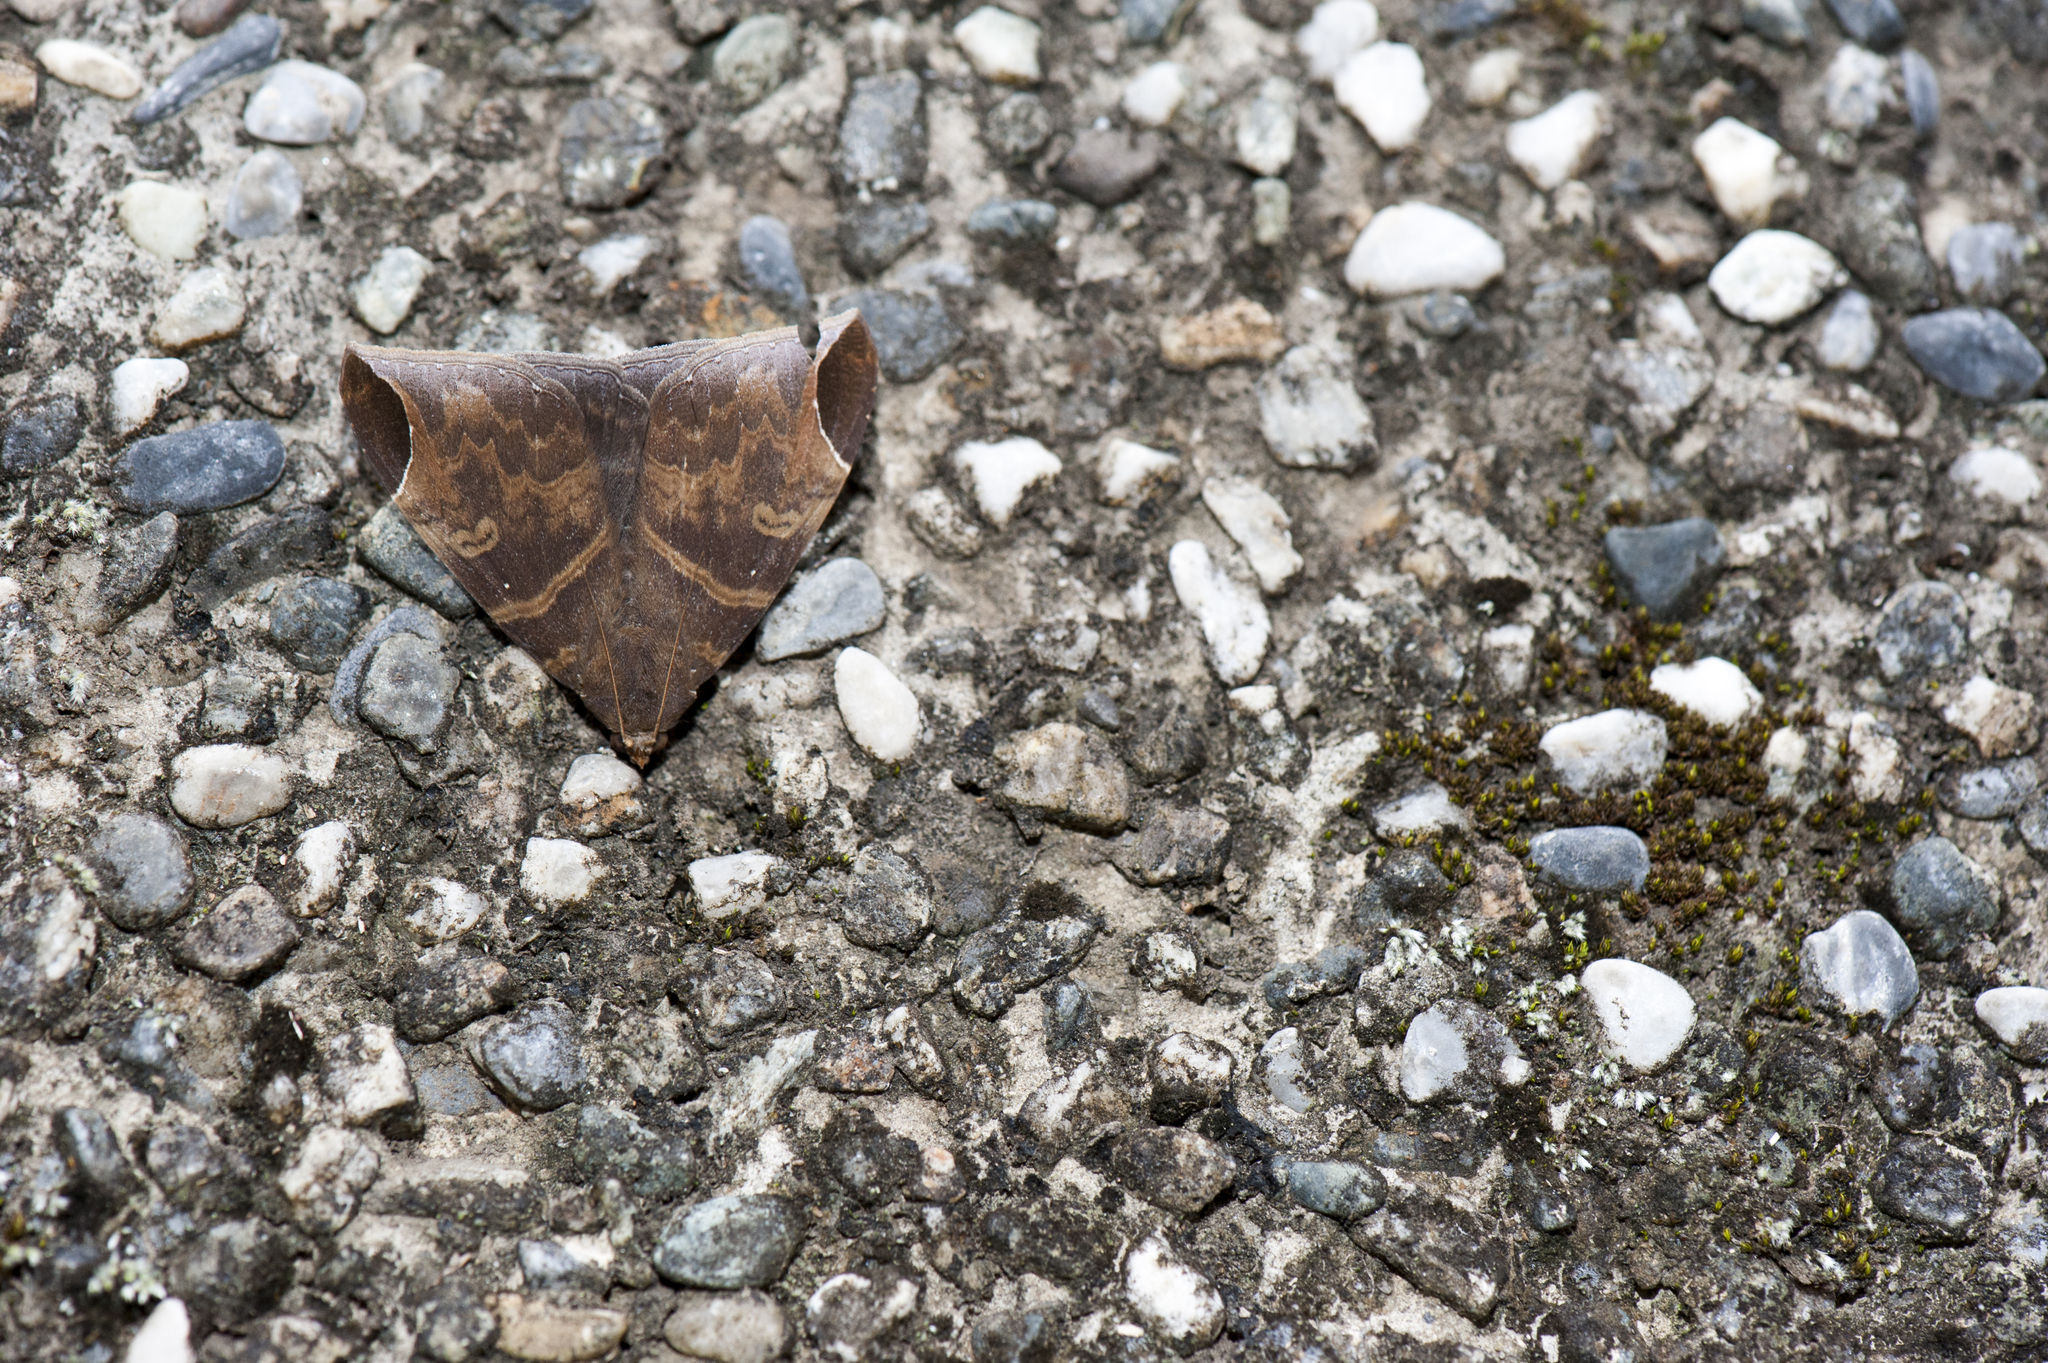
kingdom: Animalia
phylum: Arthropoda
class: Insecta
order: Lepidoptera
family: Erebidae
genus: Pindara
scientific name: Pindara illibata
